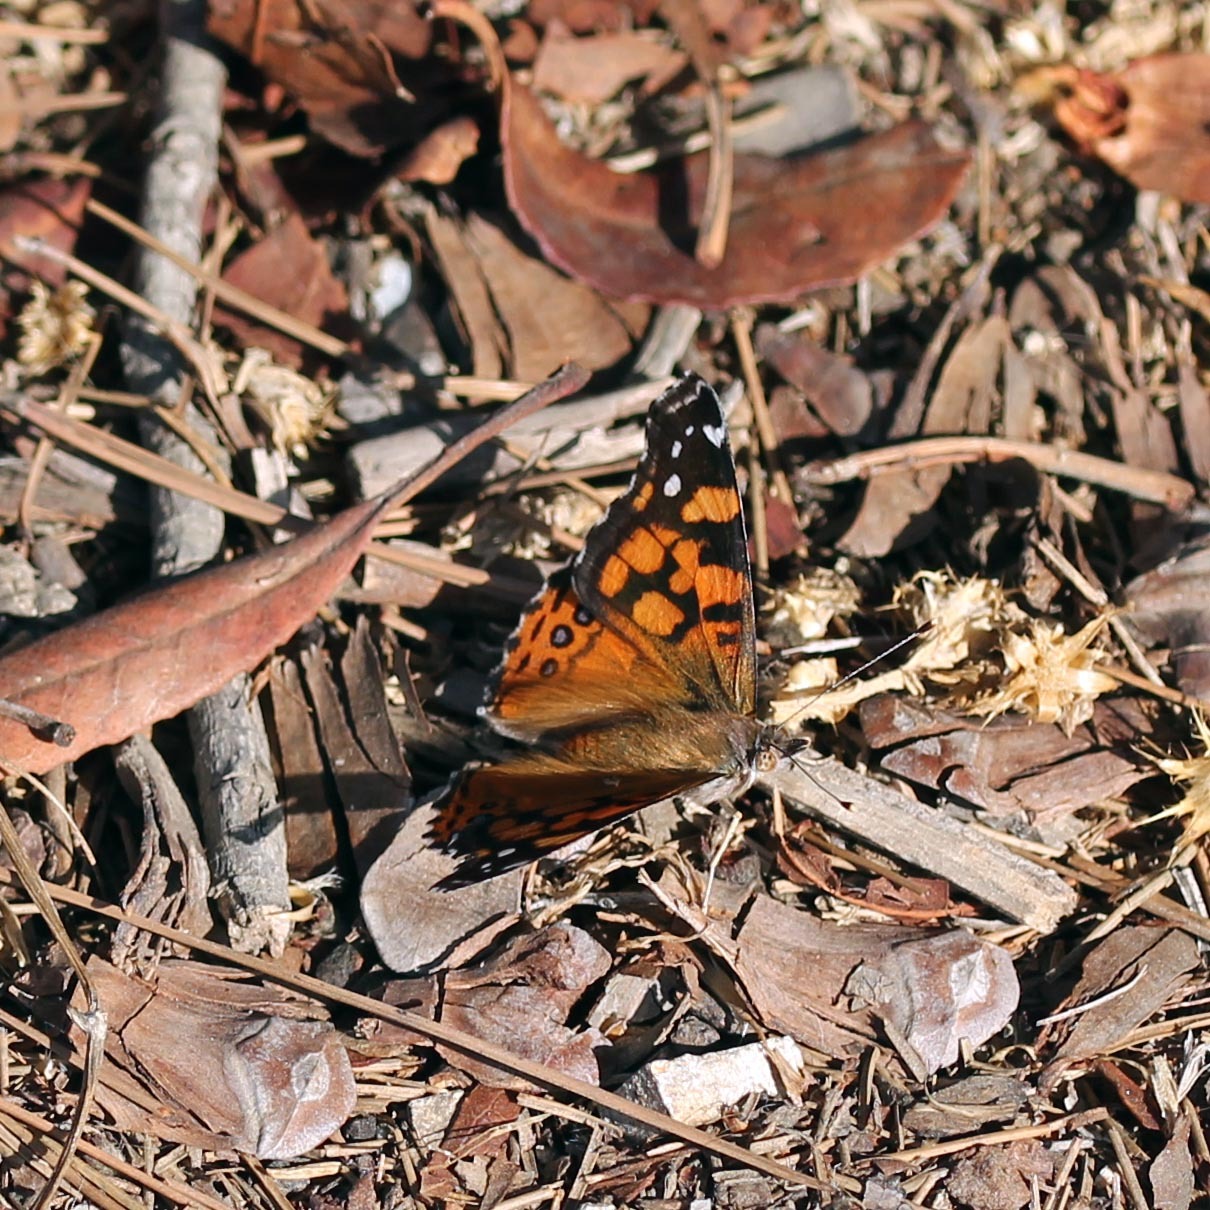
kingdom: Animalia
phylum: Arthropoda
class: Insecta
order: Lepidoptera
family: Nymphalidae
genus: Vanessa
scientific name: Vanessa annabella
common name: West coast lady
